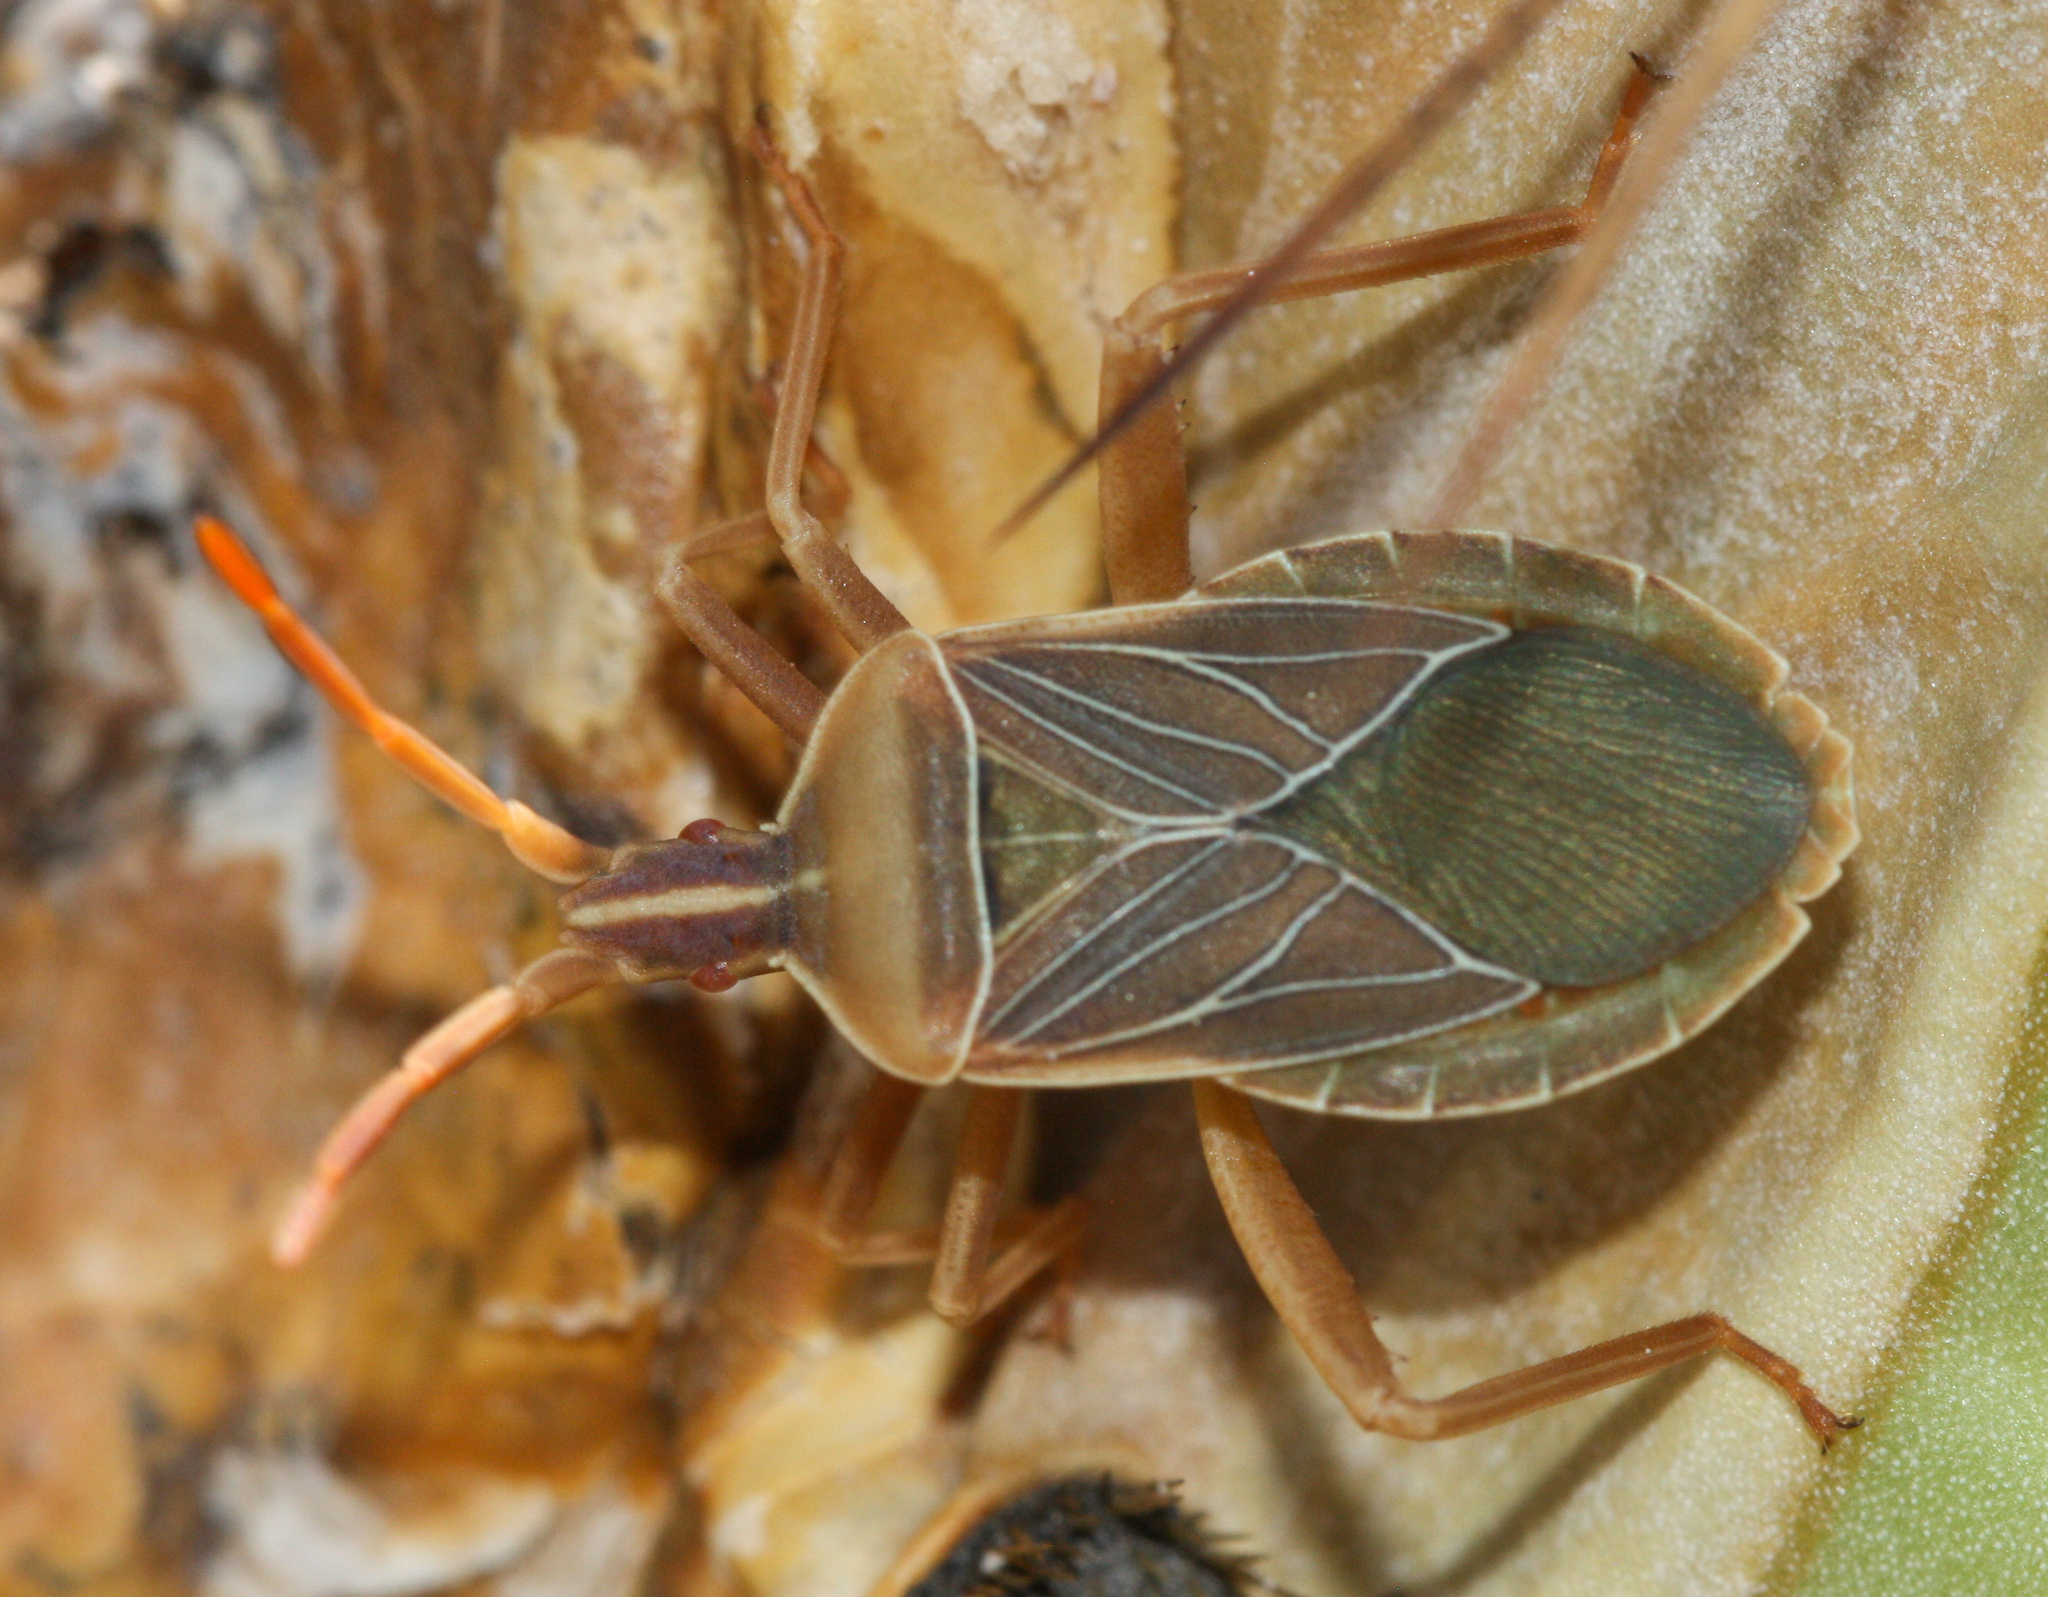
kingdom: Animalia
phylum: Arthropoda
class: Insecta
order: Hemiptera
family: Coreidae
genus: Chelinidea
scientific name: Chelinidea vittiger
